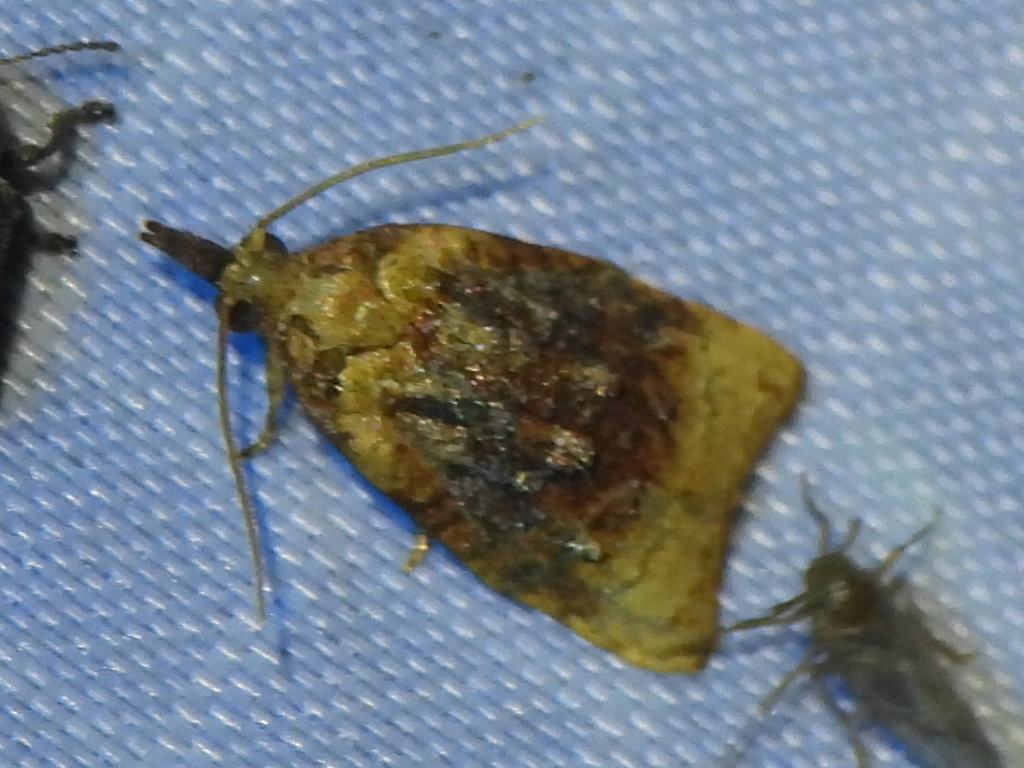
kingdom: Animalia
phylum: Arthropoda
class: Insecta
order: Lepidoptera
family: Tortricidae
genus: Platynota
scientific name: Platynota flavedana
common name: Black-shaded platynota moth
